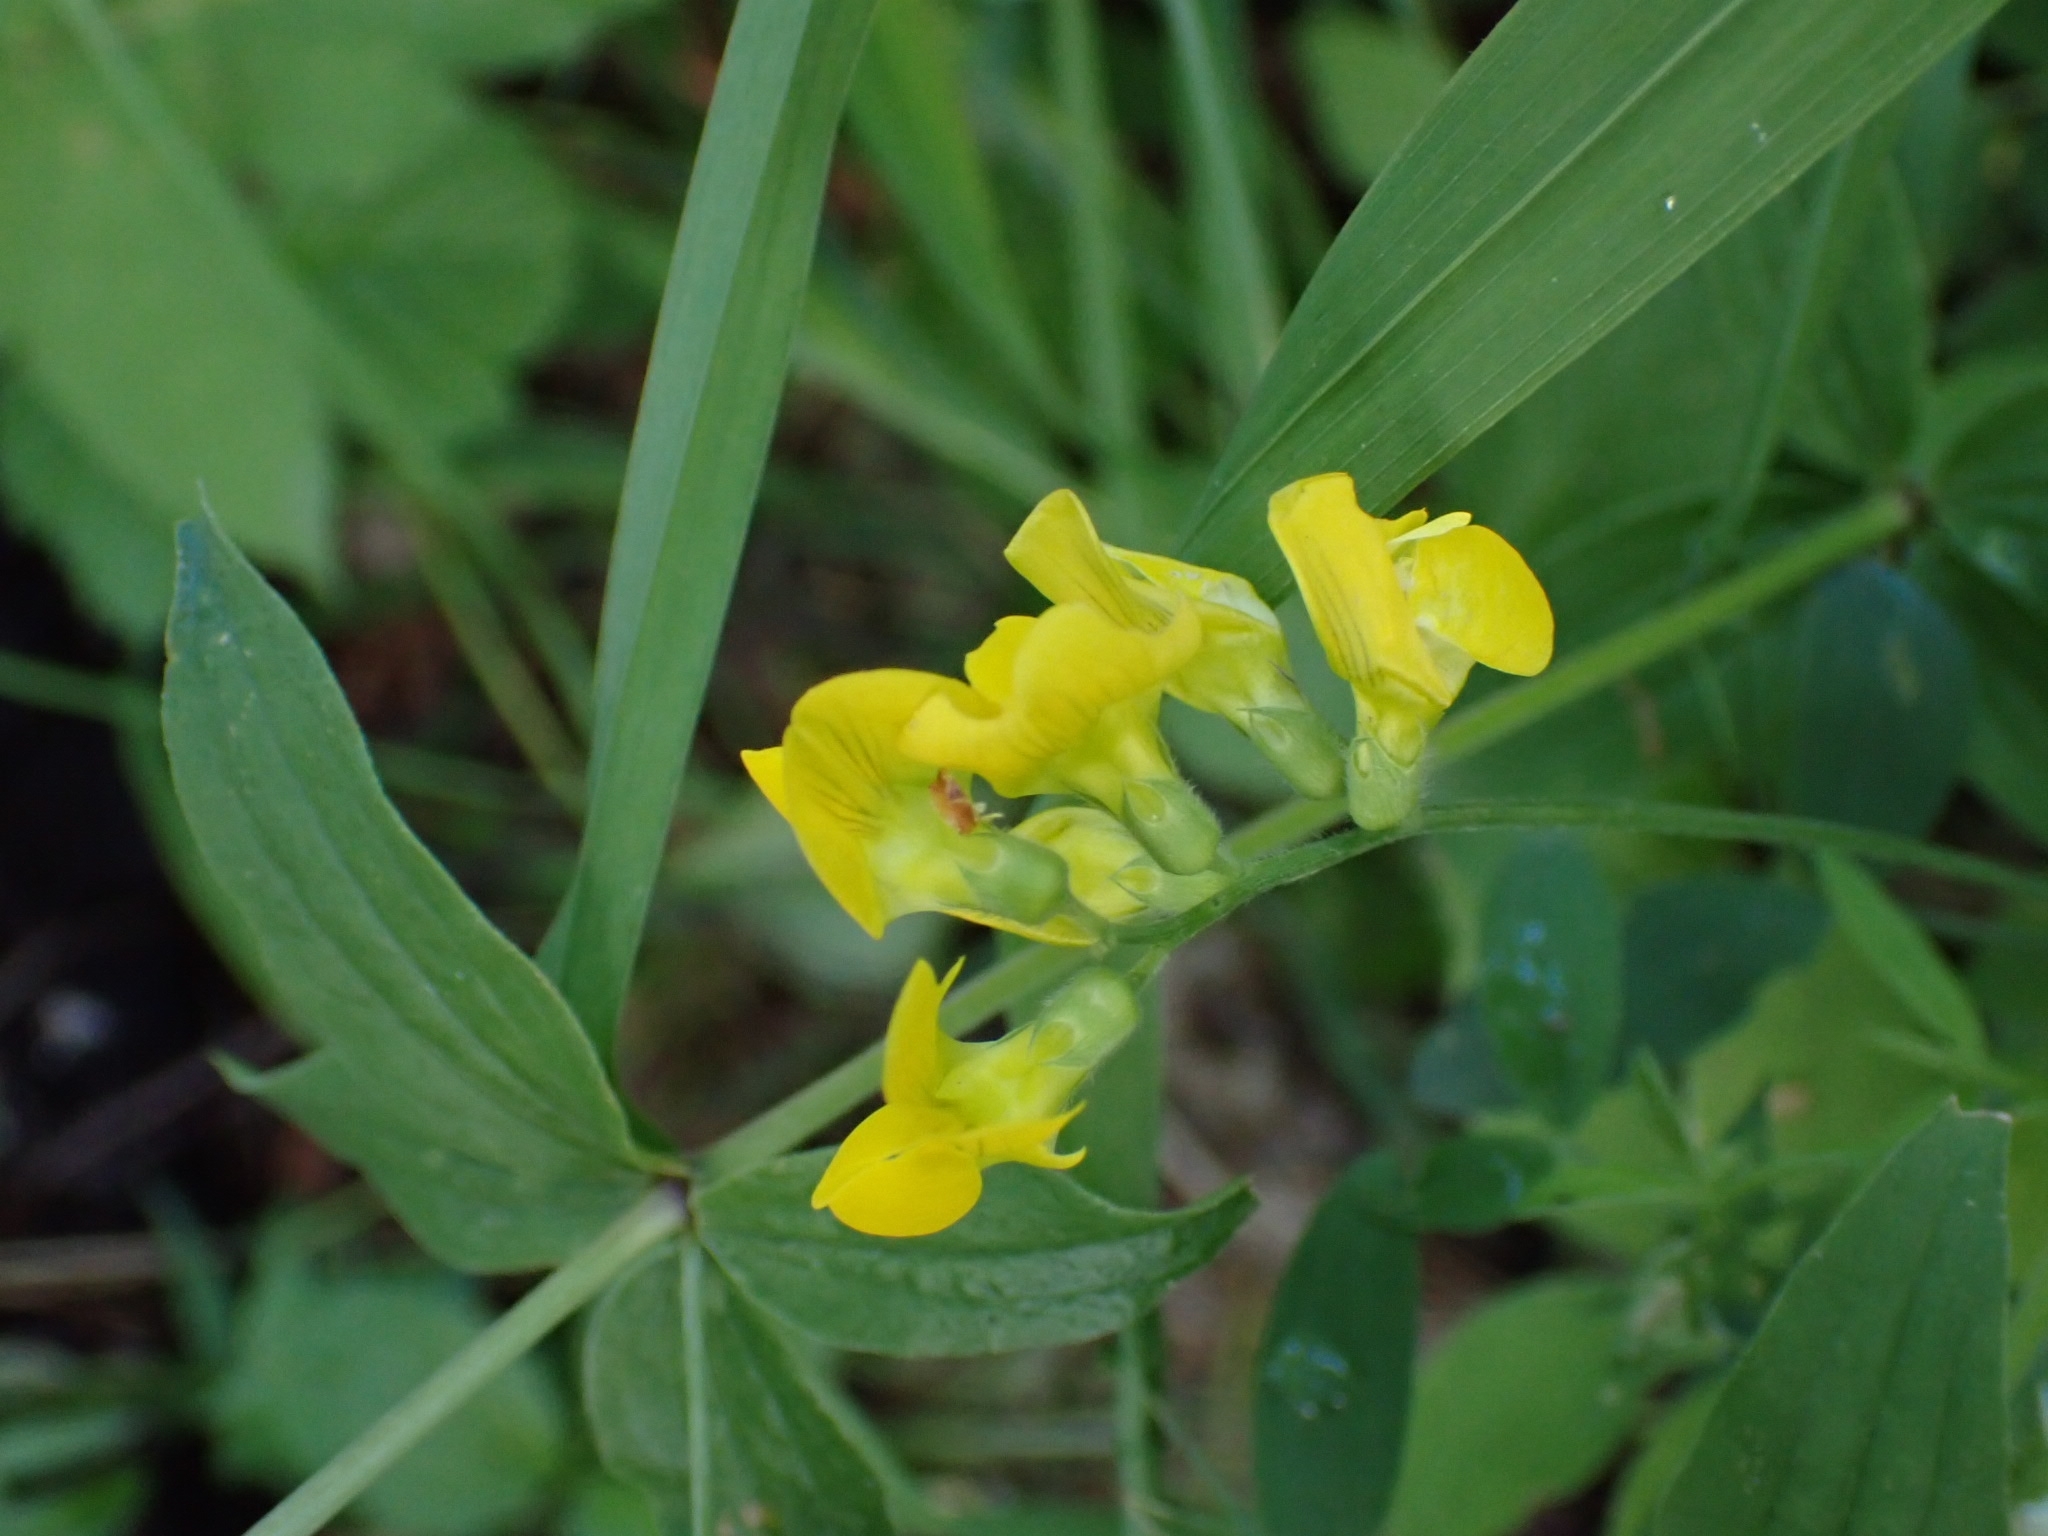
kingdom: Plantae
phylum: Tracheophyta
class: Magnoliopsida
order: Fabales
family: Fabaceae
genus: Lathyrus
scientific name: Lathyrus pratensis
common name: Meadow vetchling
